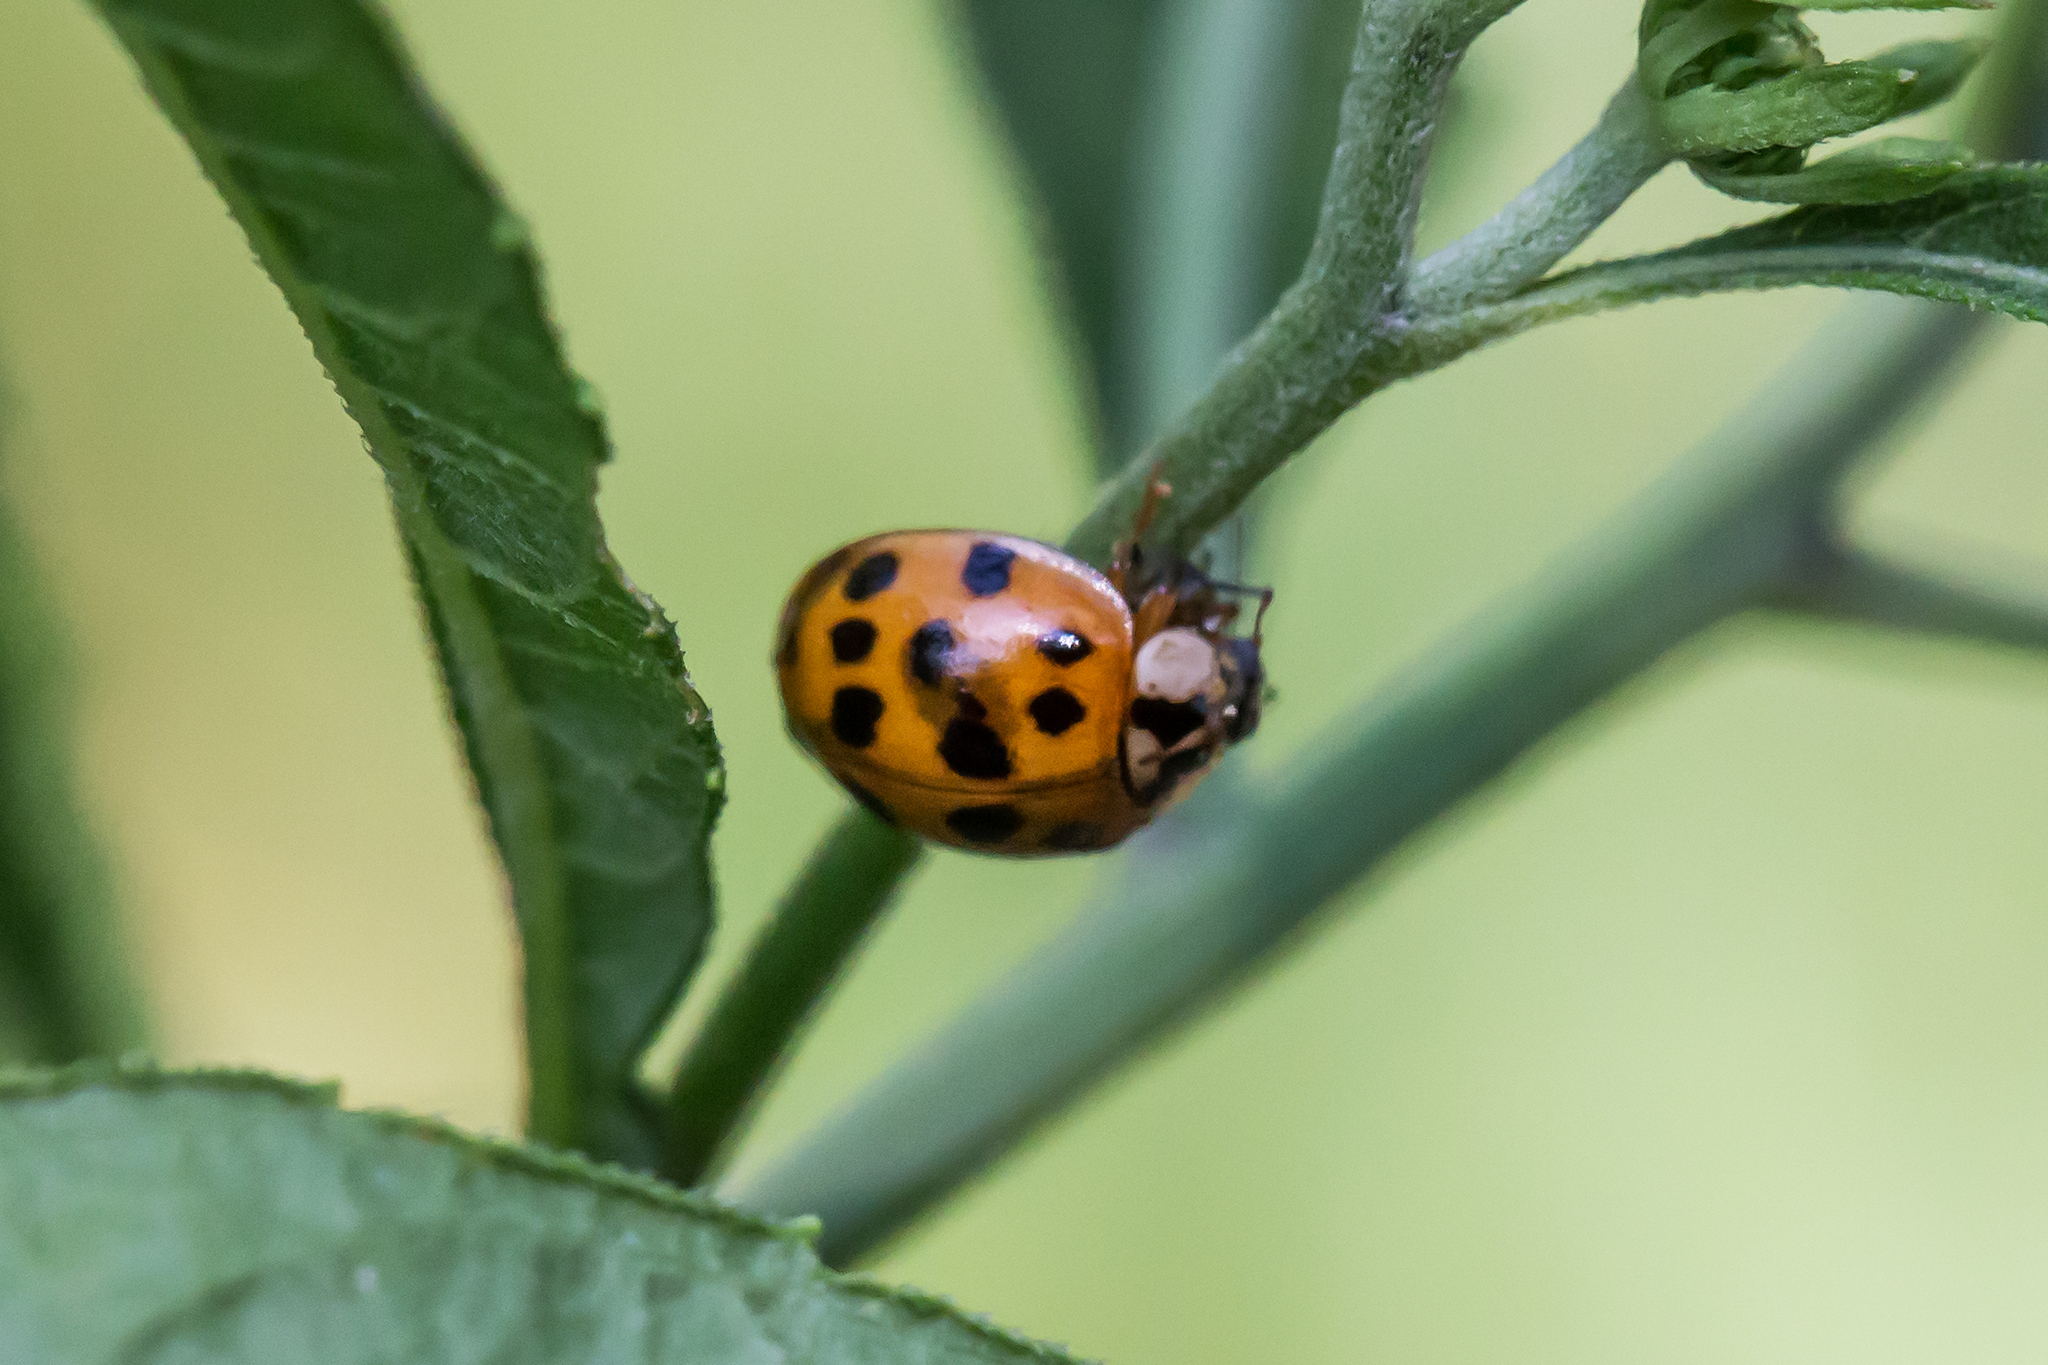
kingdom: Animalia
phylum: Arthropoda
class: Insecta
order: Coleoptera
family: Coccinellidae
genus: Harmonia
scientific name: Harmonia axyridis
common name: Harlequin ladybird
